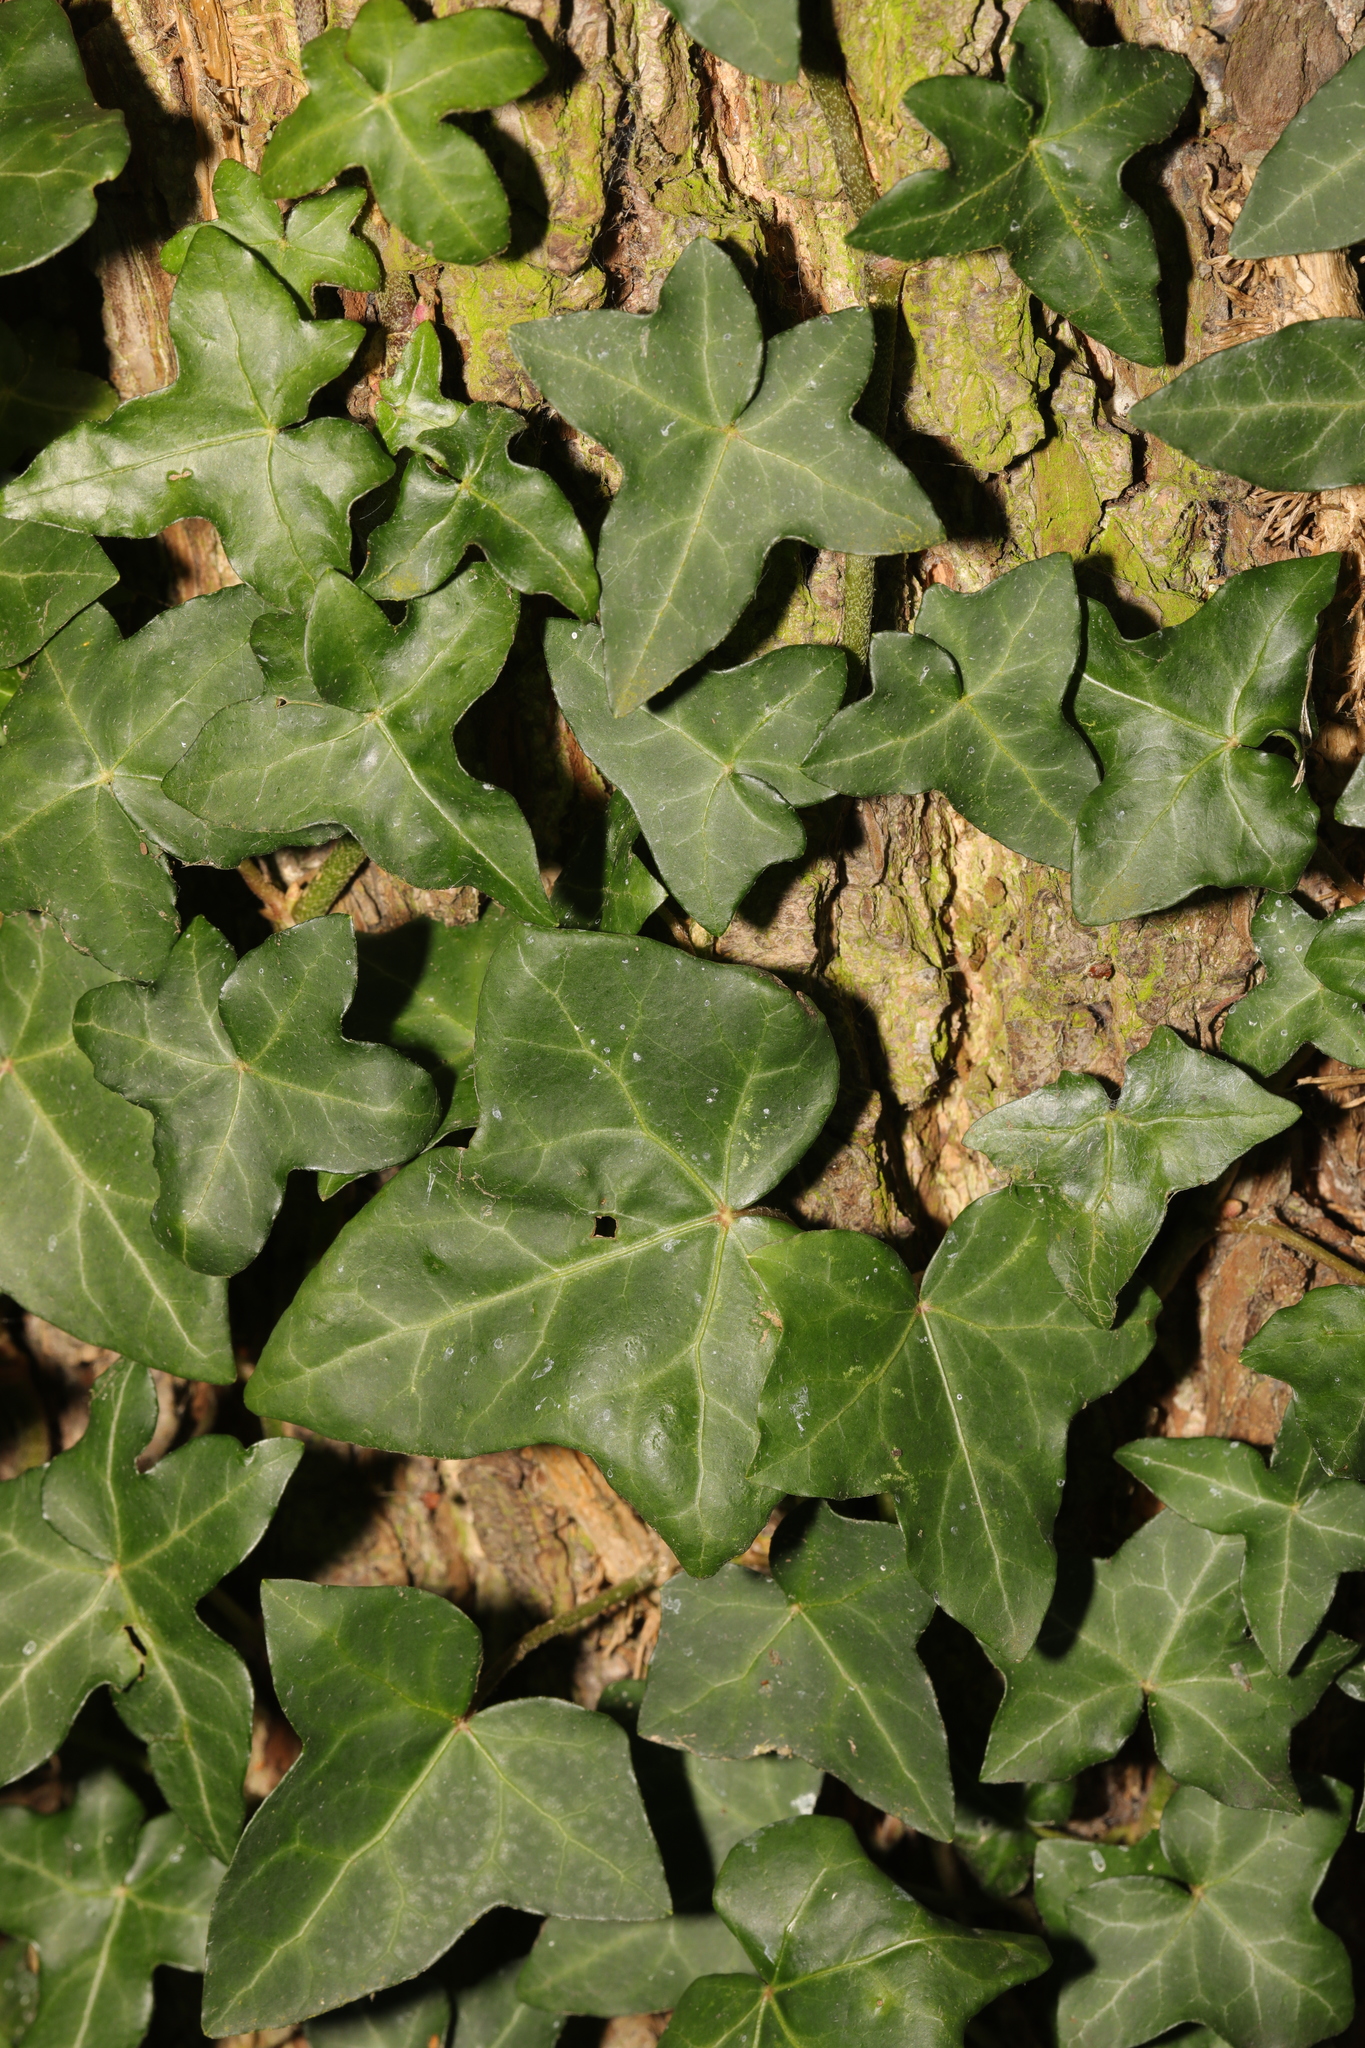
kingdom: Plantae
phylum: Tracheophyta
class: Magnoliopsida
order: Apiales
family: Araliaceae
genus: Hedera
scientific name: Hedera helix
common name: Ivy
